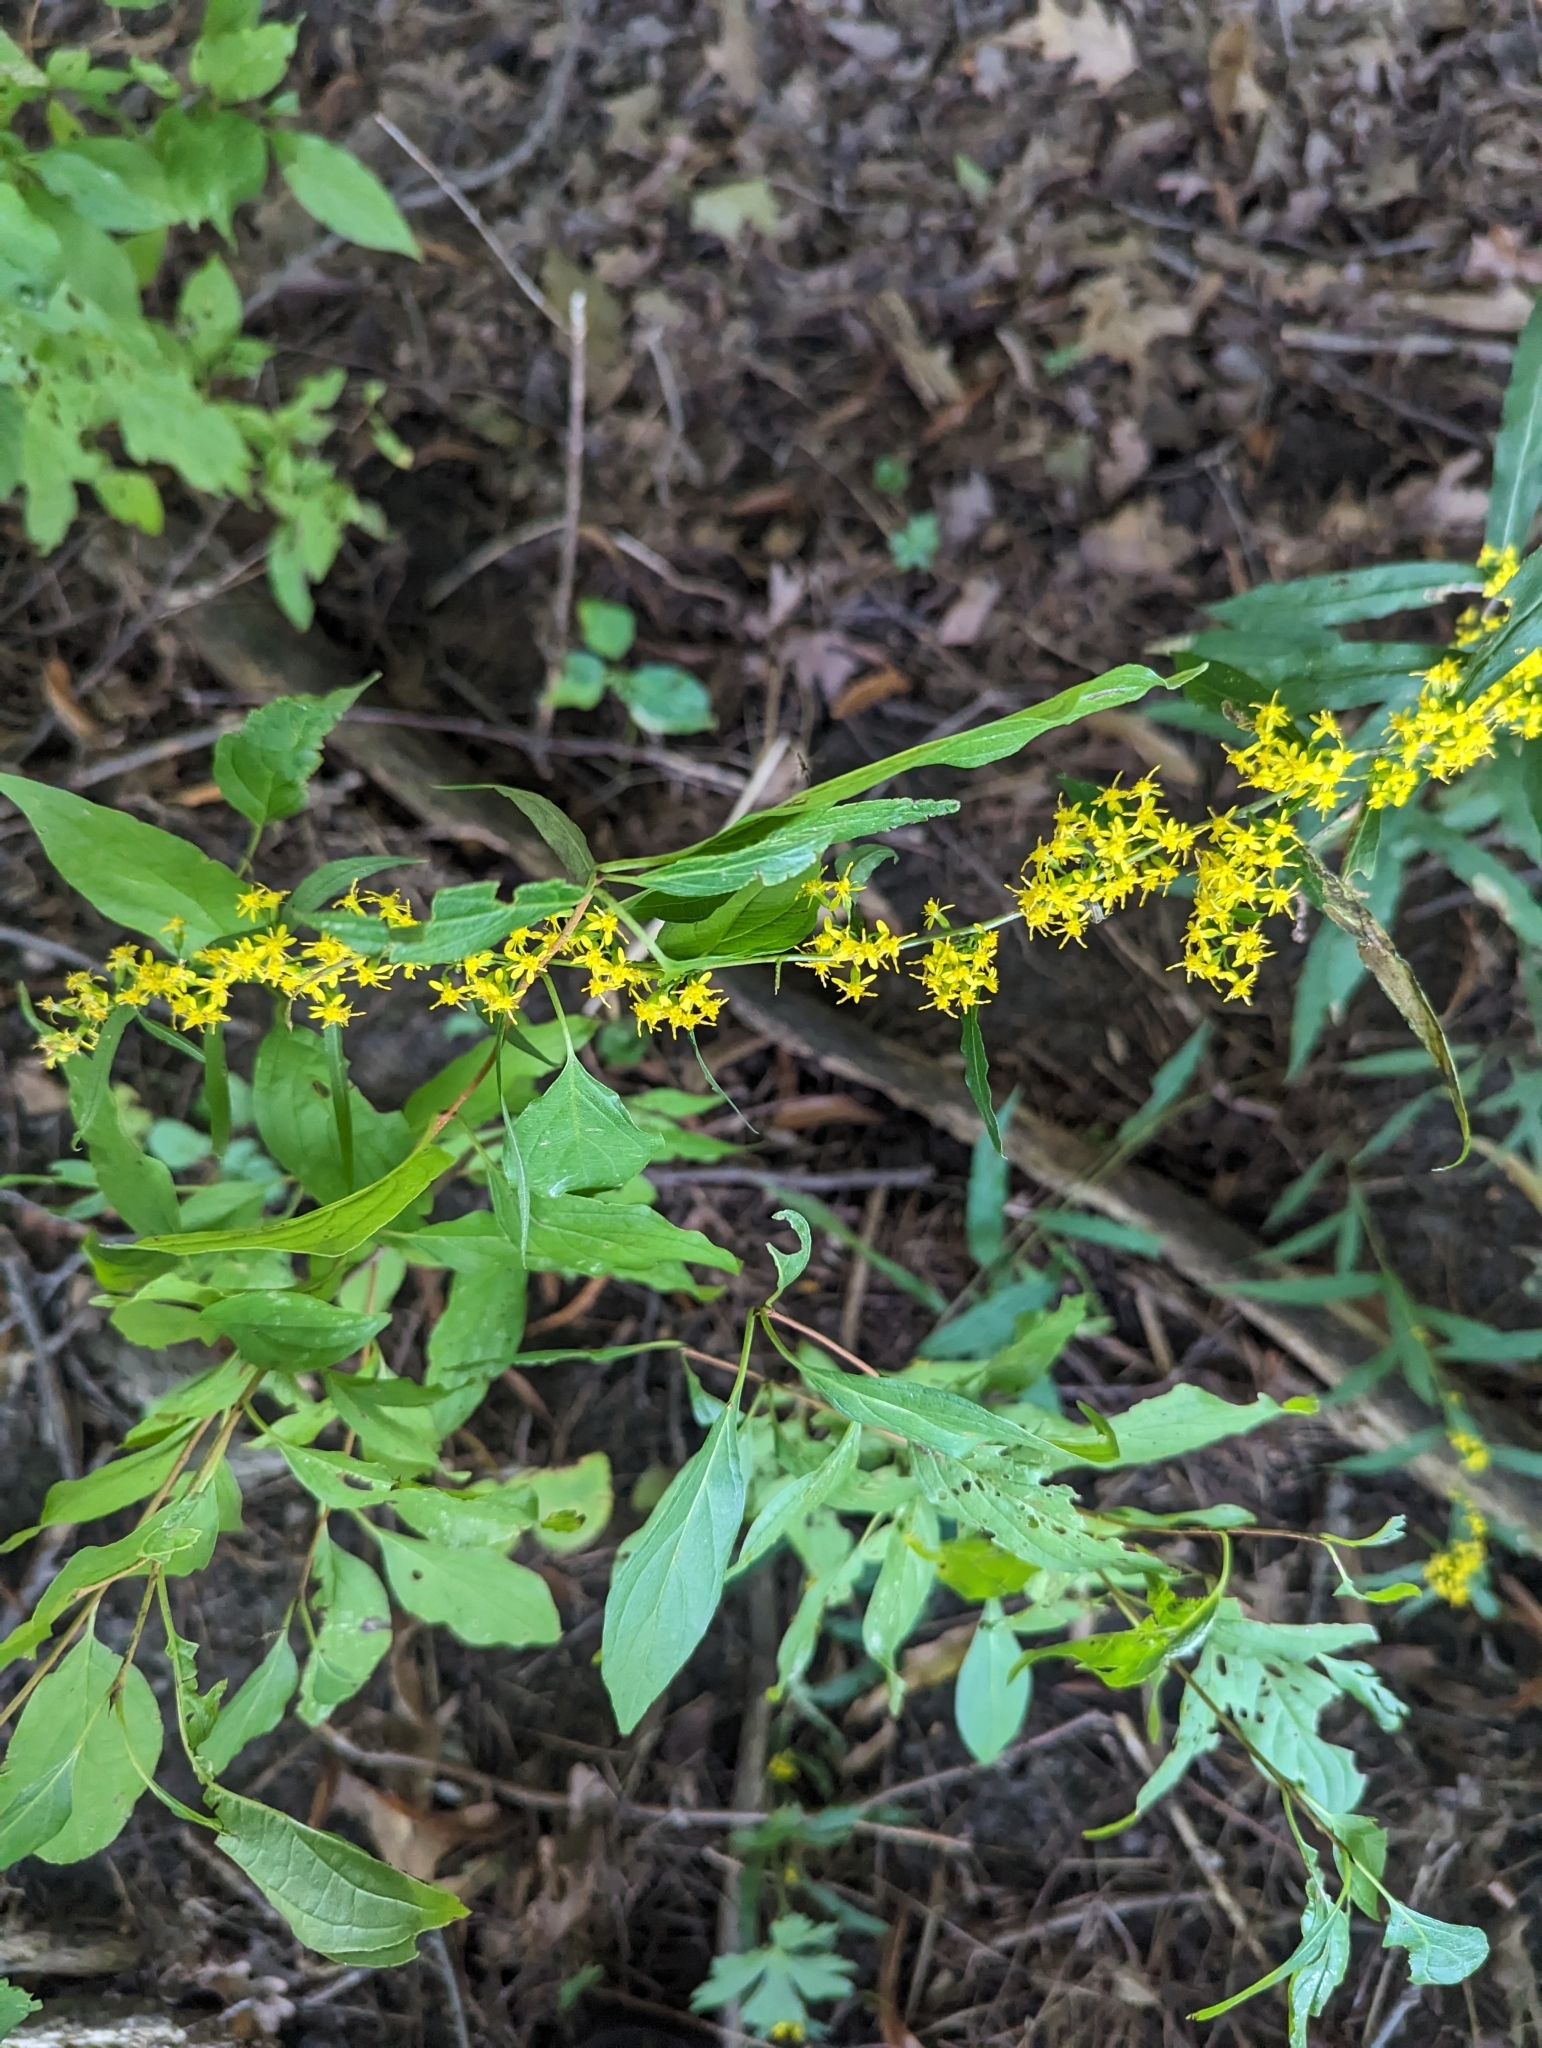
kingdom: Plantae
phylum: Tracheophyta
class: Magnoliopsida
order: Asterales
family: Asteraceae
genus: Solidago
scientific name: Solidago caesia
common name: Woodland goldenrod
